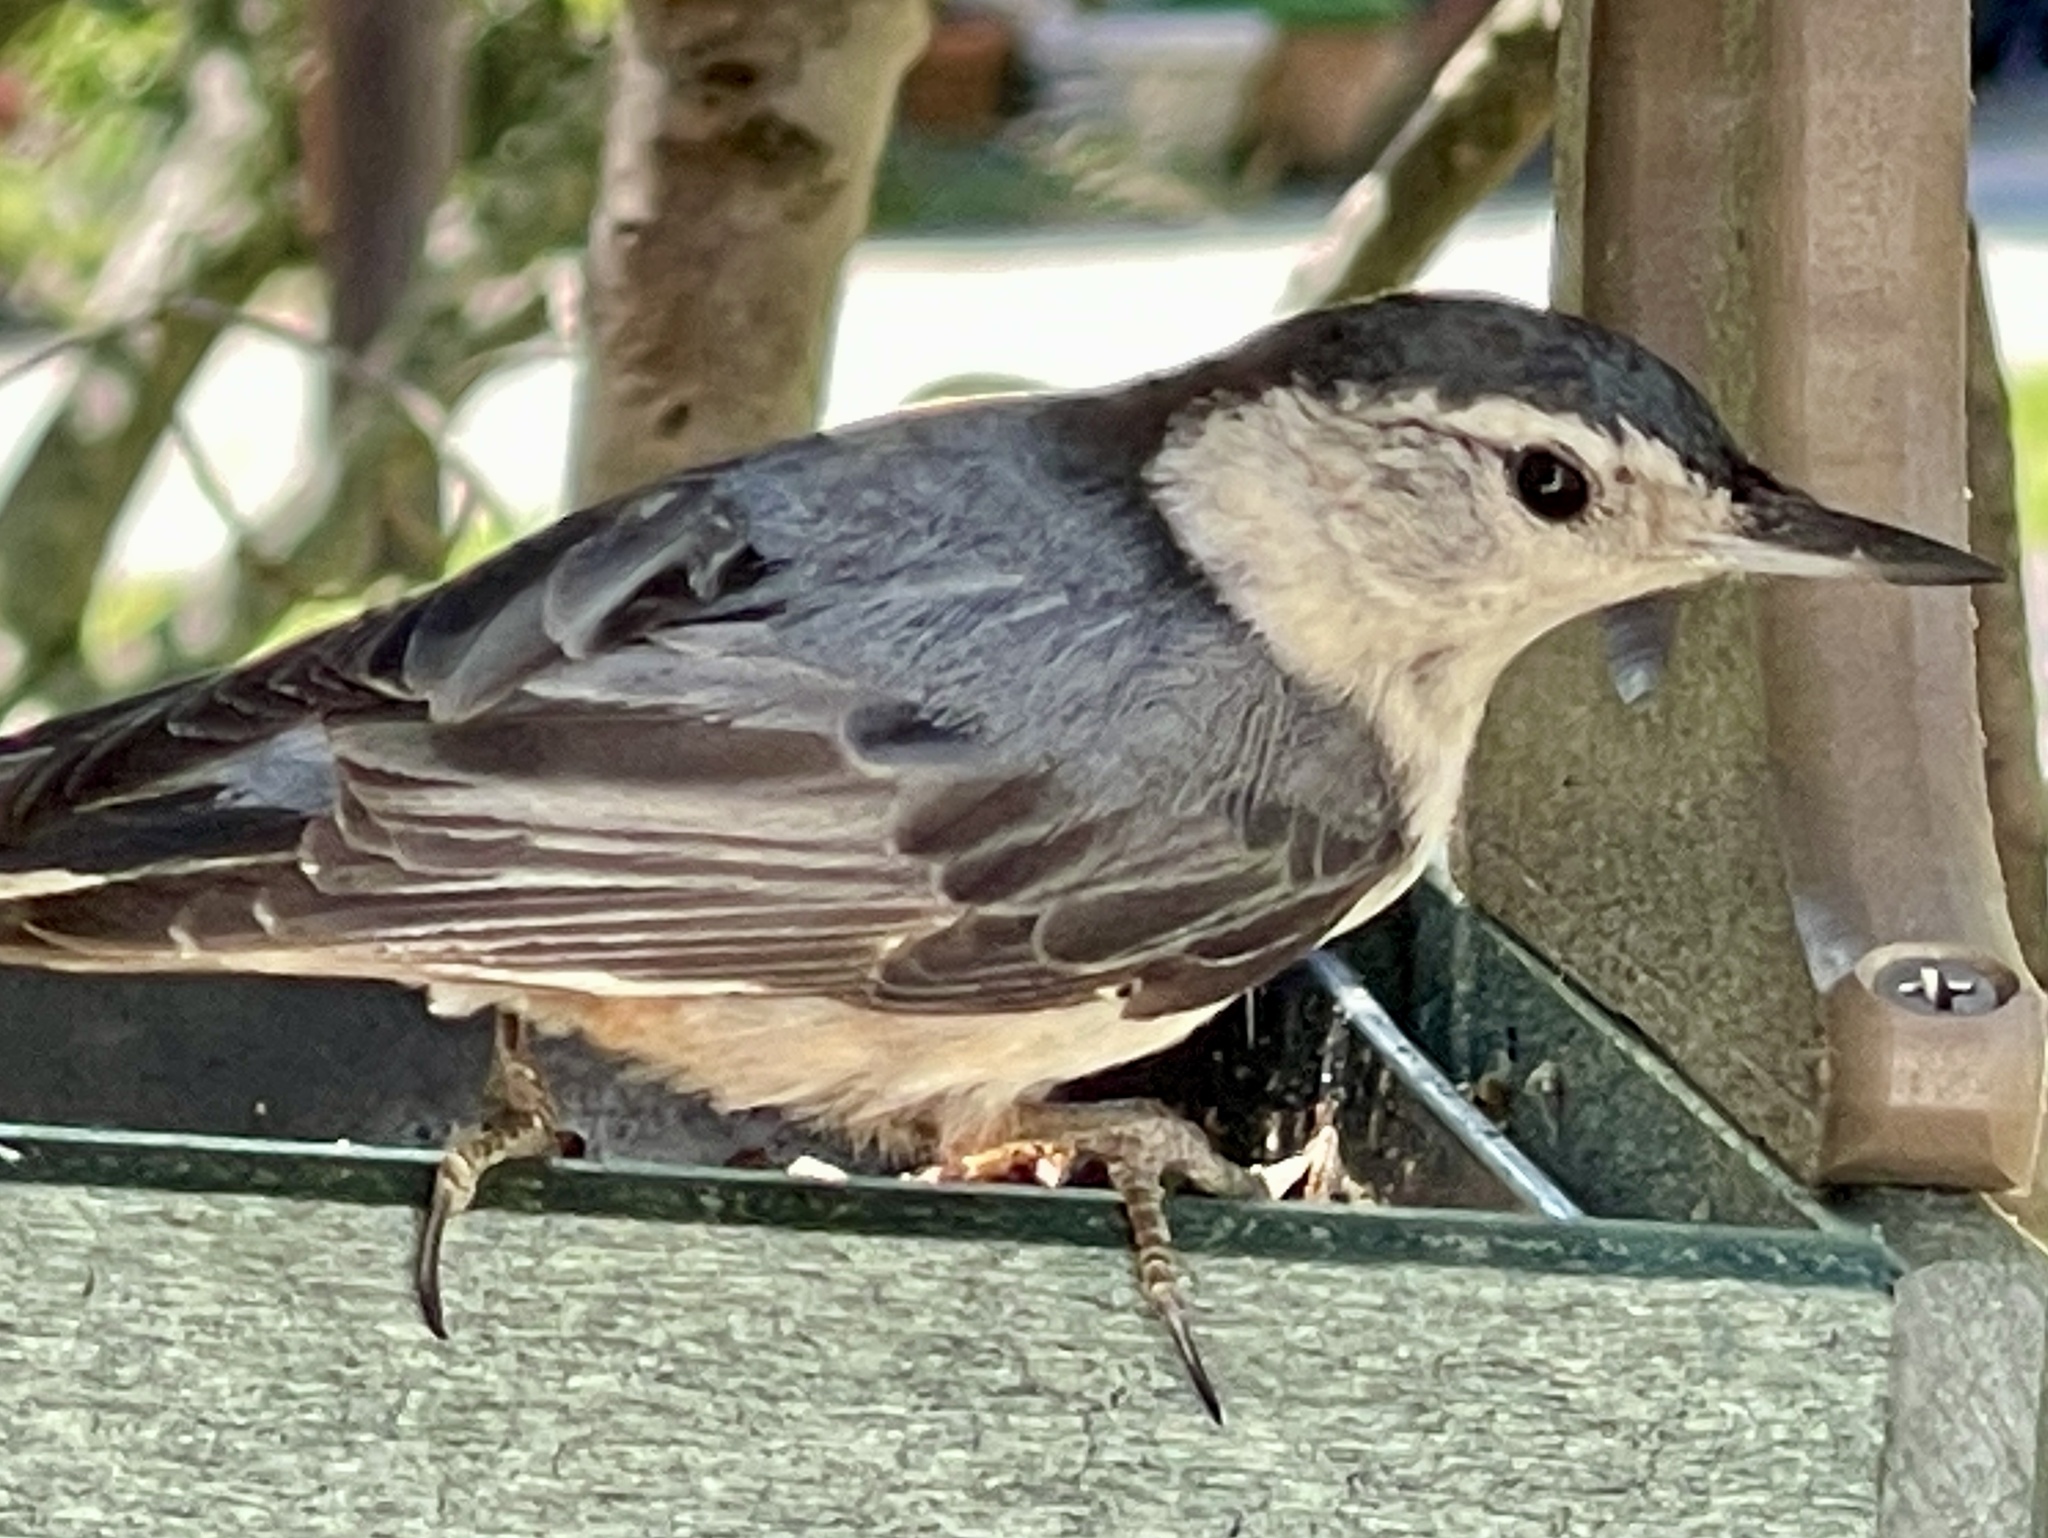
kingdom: Animalia
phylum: Chordata
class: Aves
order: Passeriformes
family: Sittidae
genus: Sitta
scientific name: Sitta carolinensis
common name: White-breasted nuthatch
